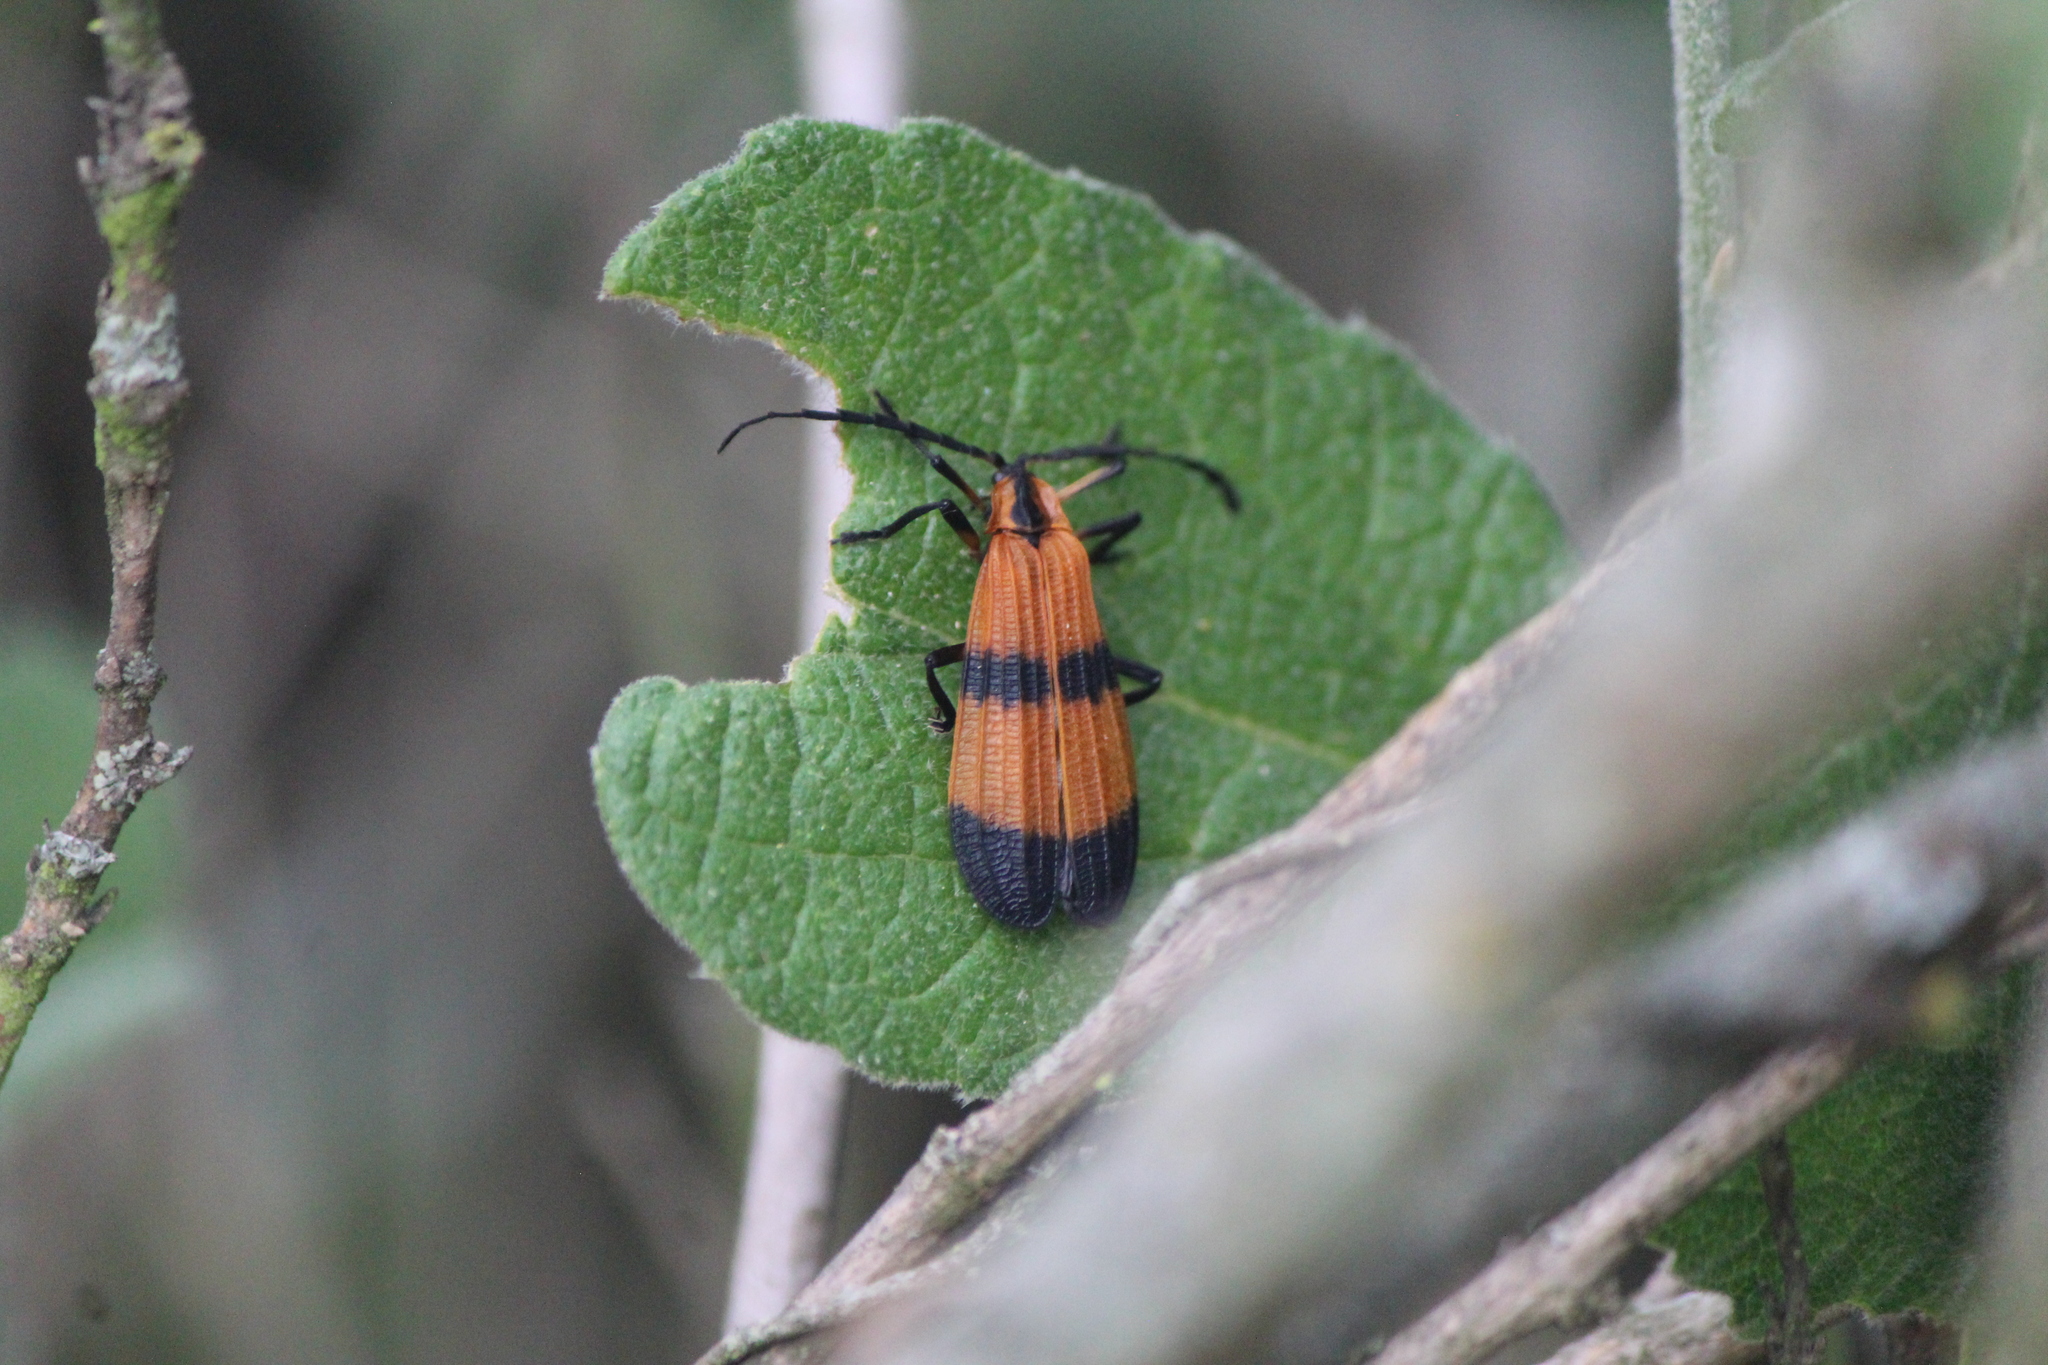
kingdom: Animalia
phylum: Arthropoda
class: Insecta
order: Coleoptera
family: Lycidae
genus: Calopteron
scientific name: Calopteron terminale
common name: End band net-winged beetle
